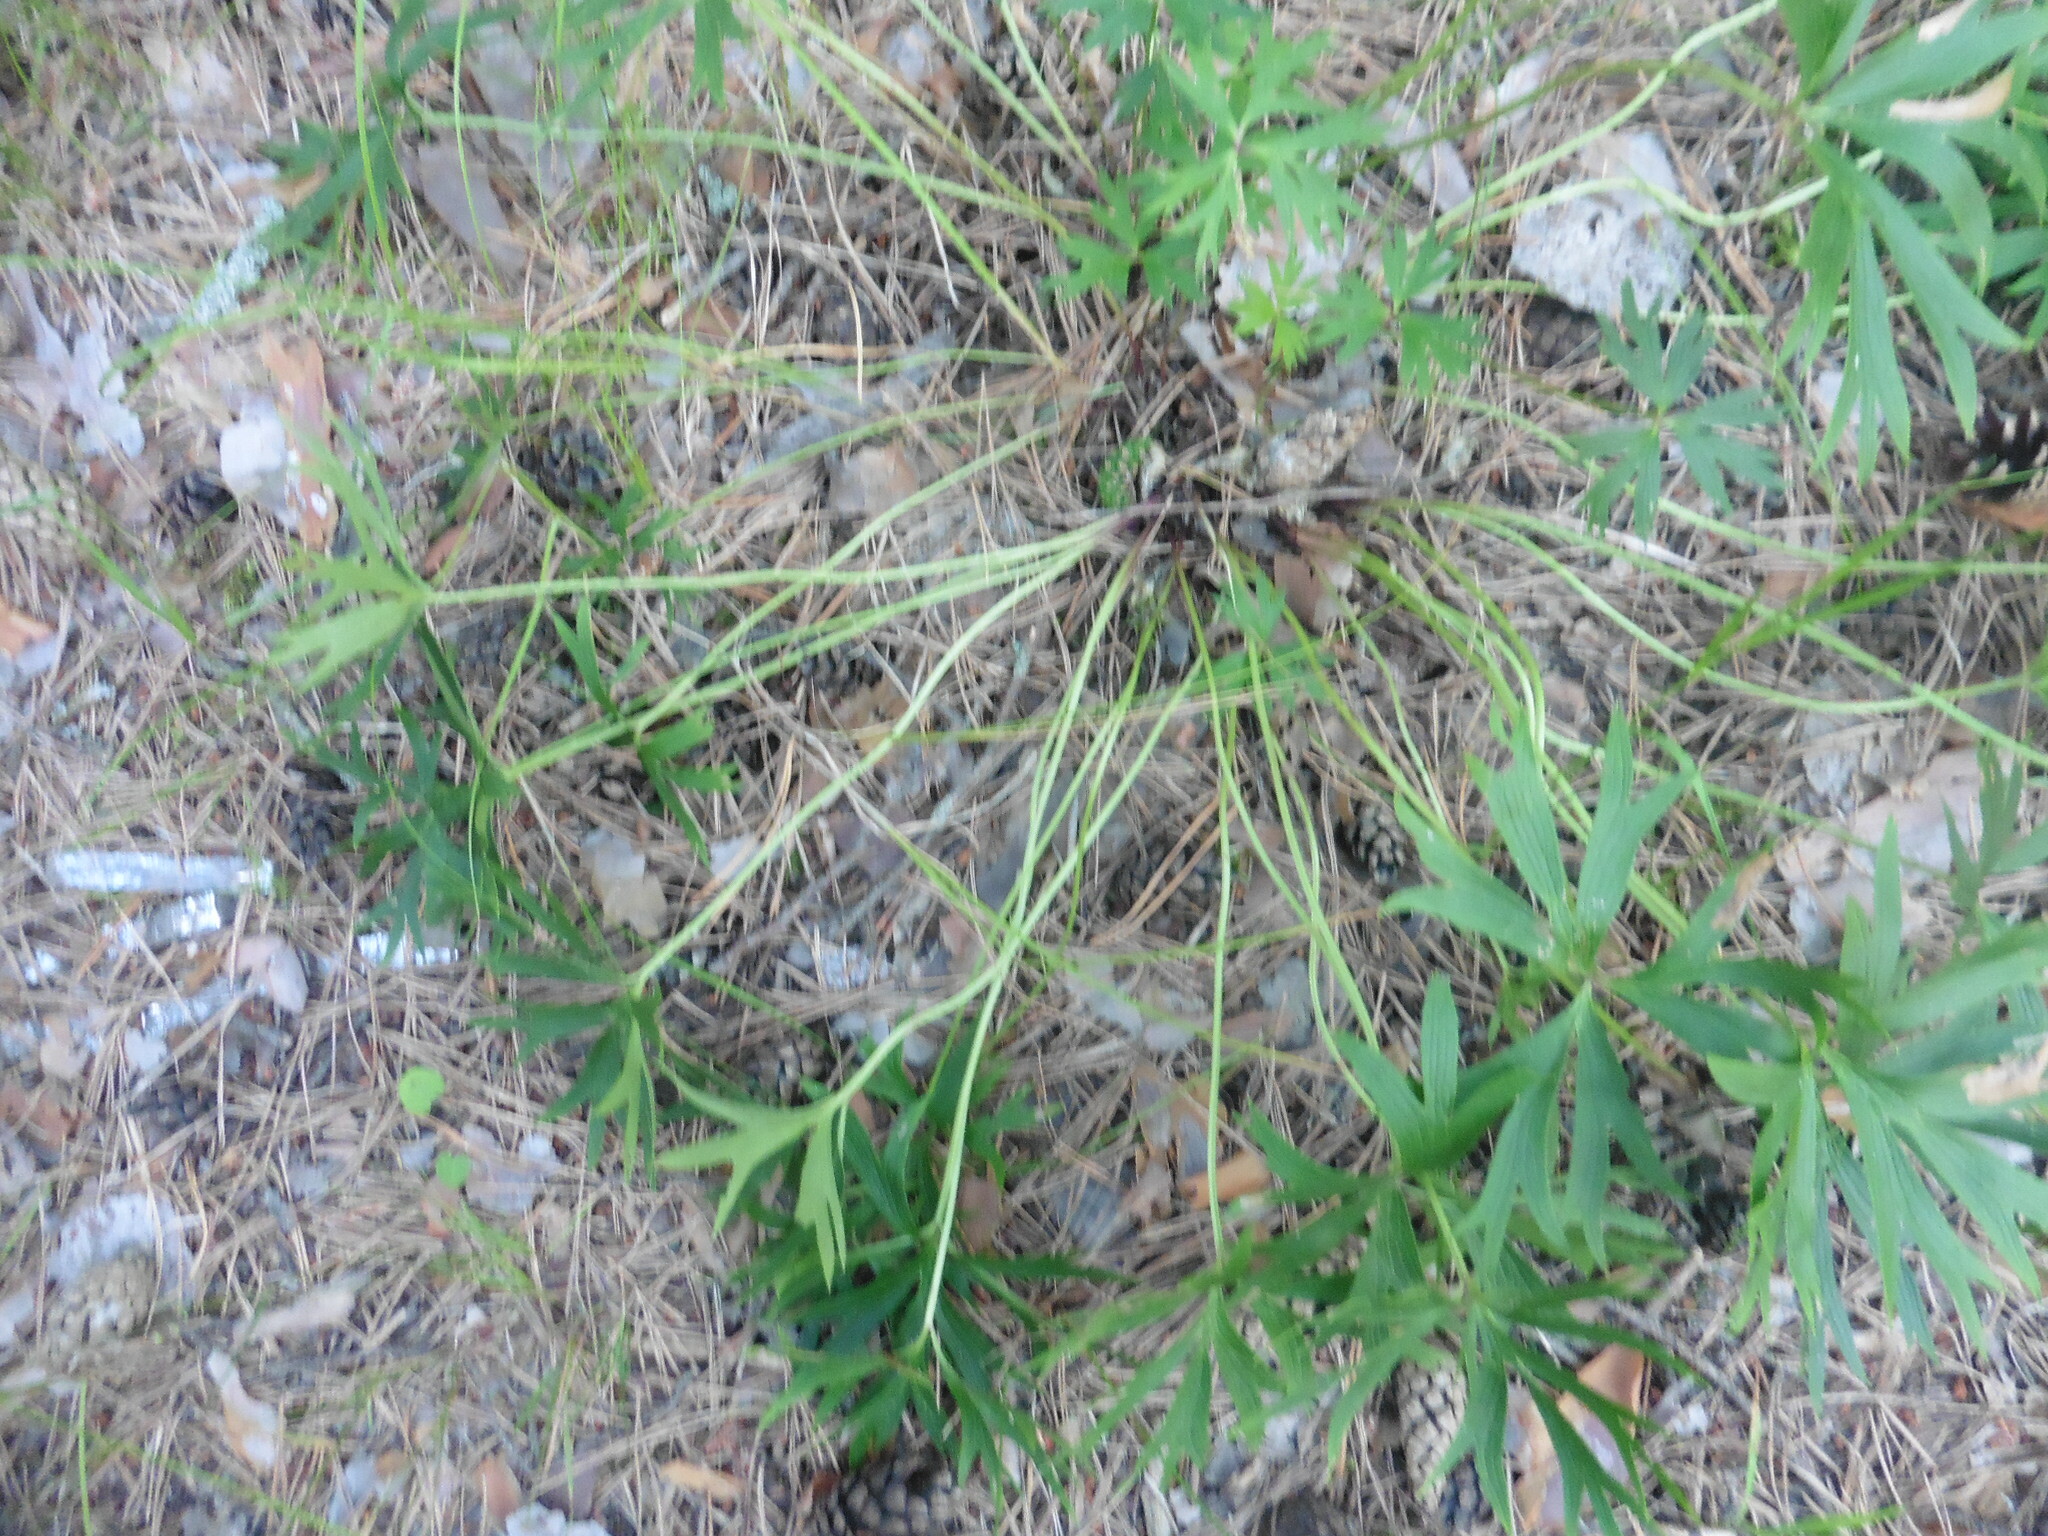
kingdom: Plantae
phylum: Tracheophyta
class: Magnoliopsida
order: Ranunculales
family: Ranunculaceae
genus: Pulsatilla
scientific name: Pulsatilla patens
